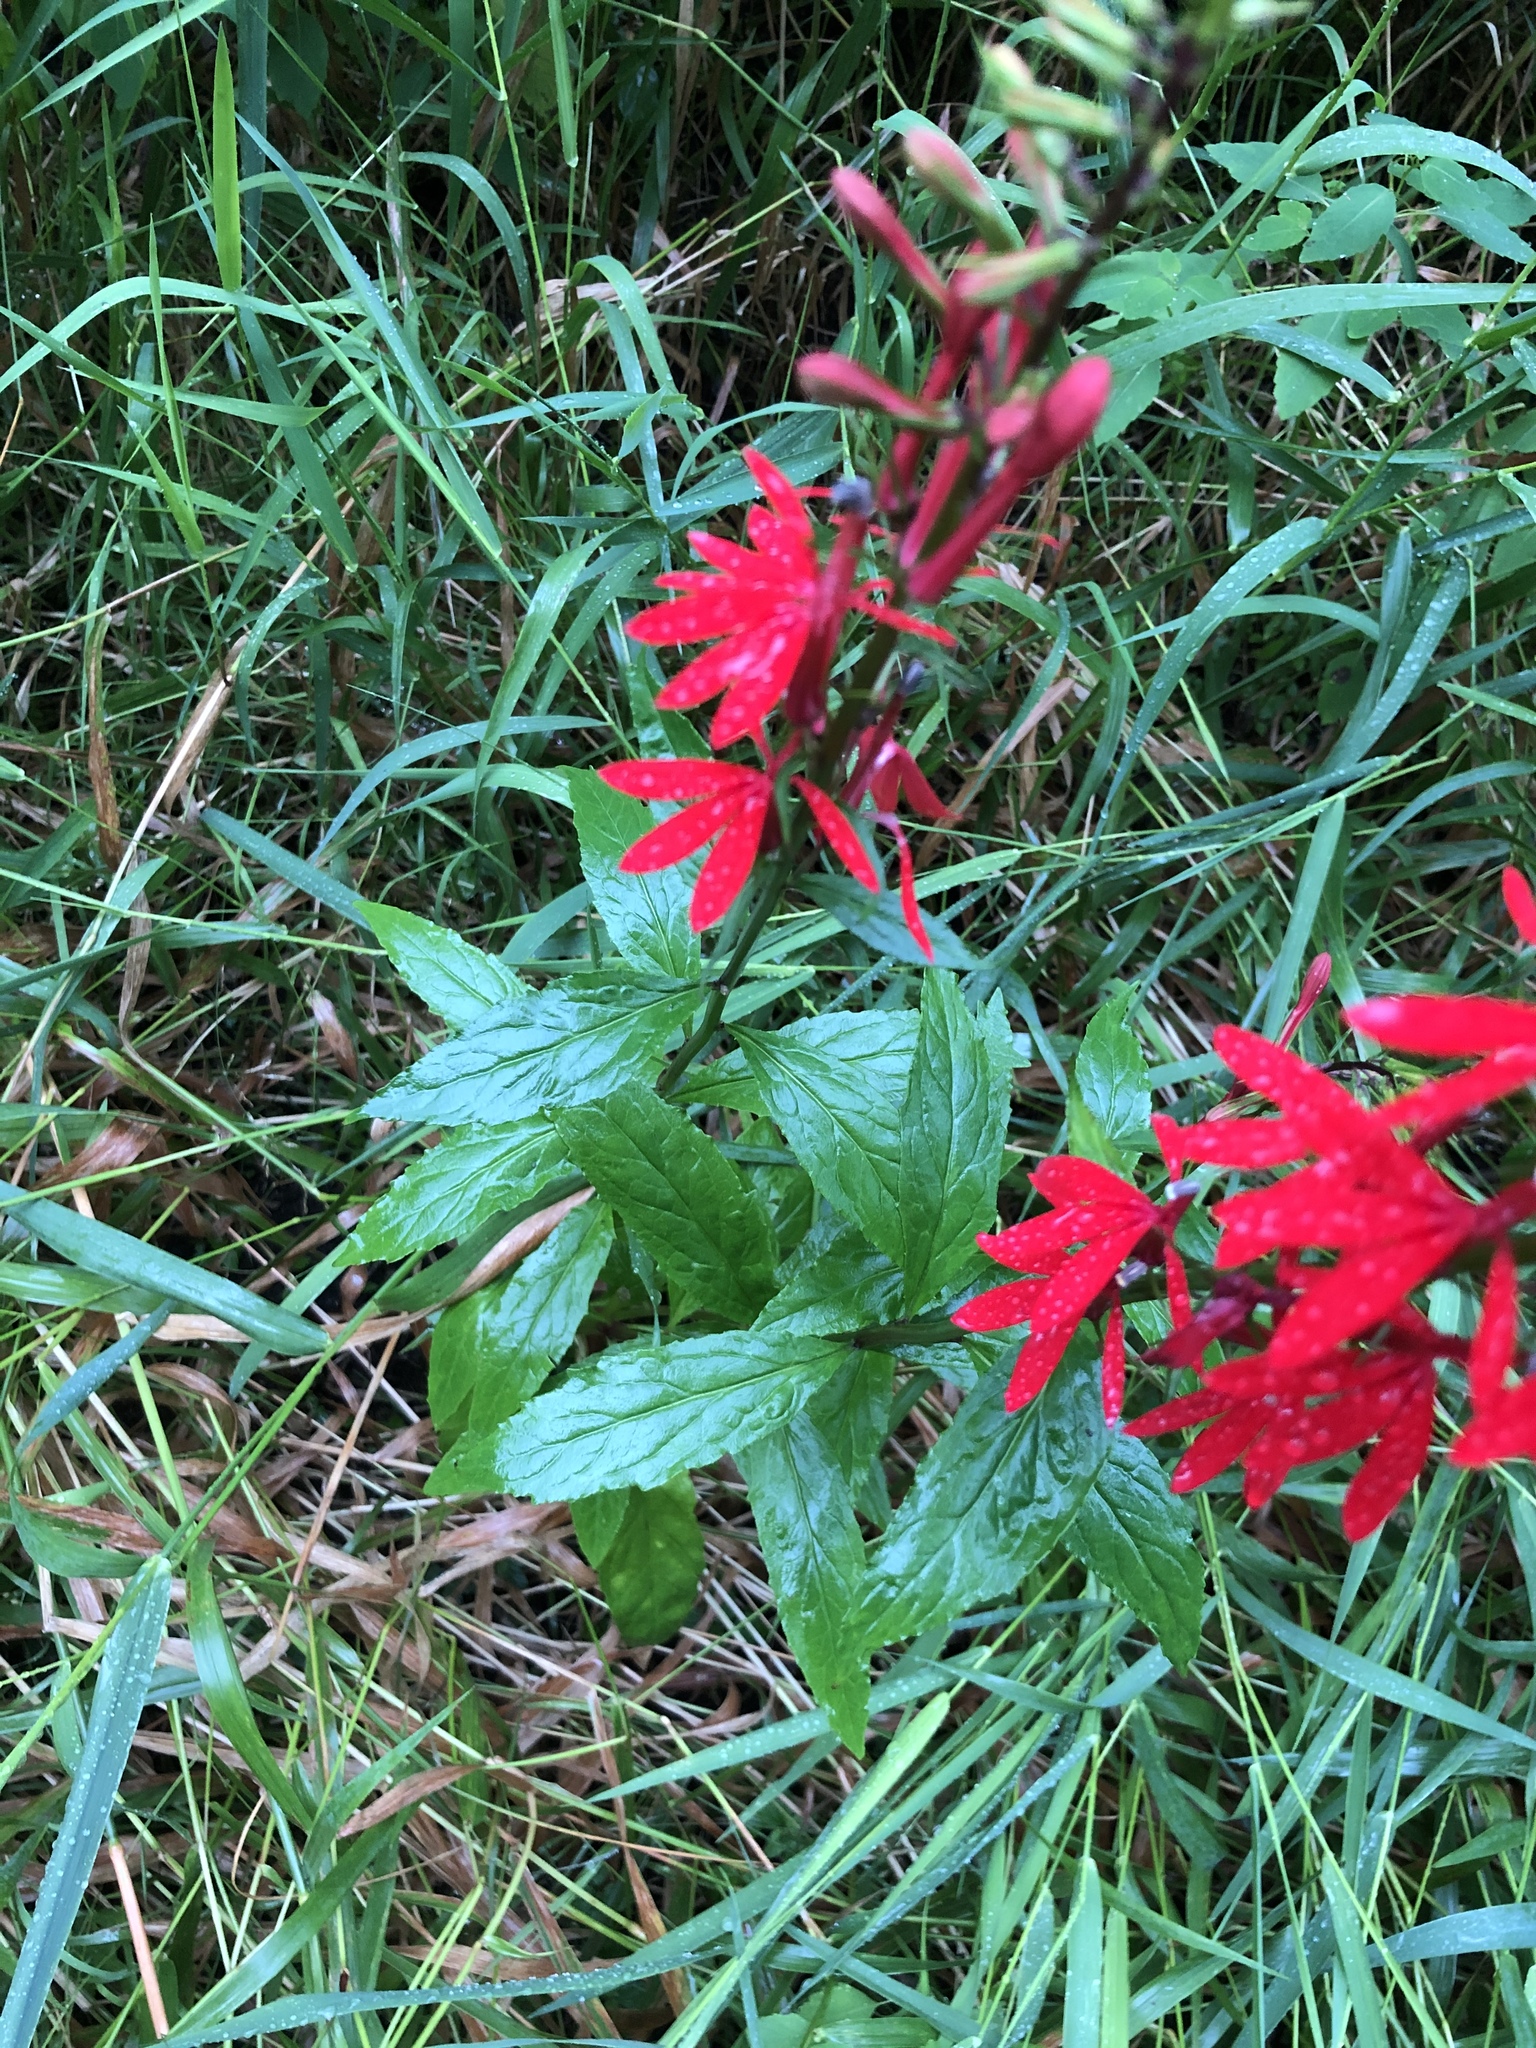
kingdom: Plantae
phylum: Tracheophyta
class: Magnoliopsida
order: Asterales
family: Campanulaceae
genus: Lobelia
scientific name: Lobelia cardinalis
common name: Cardinal flower
